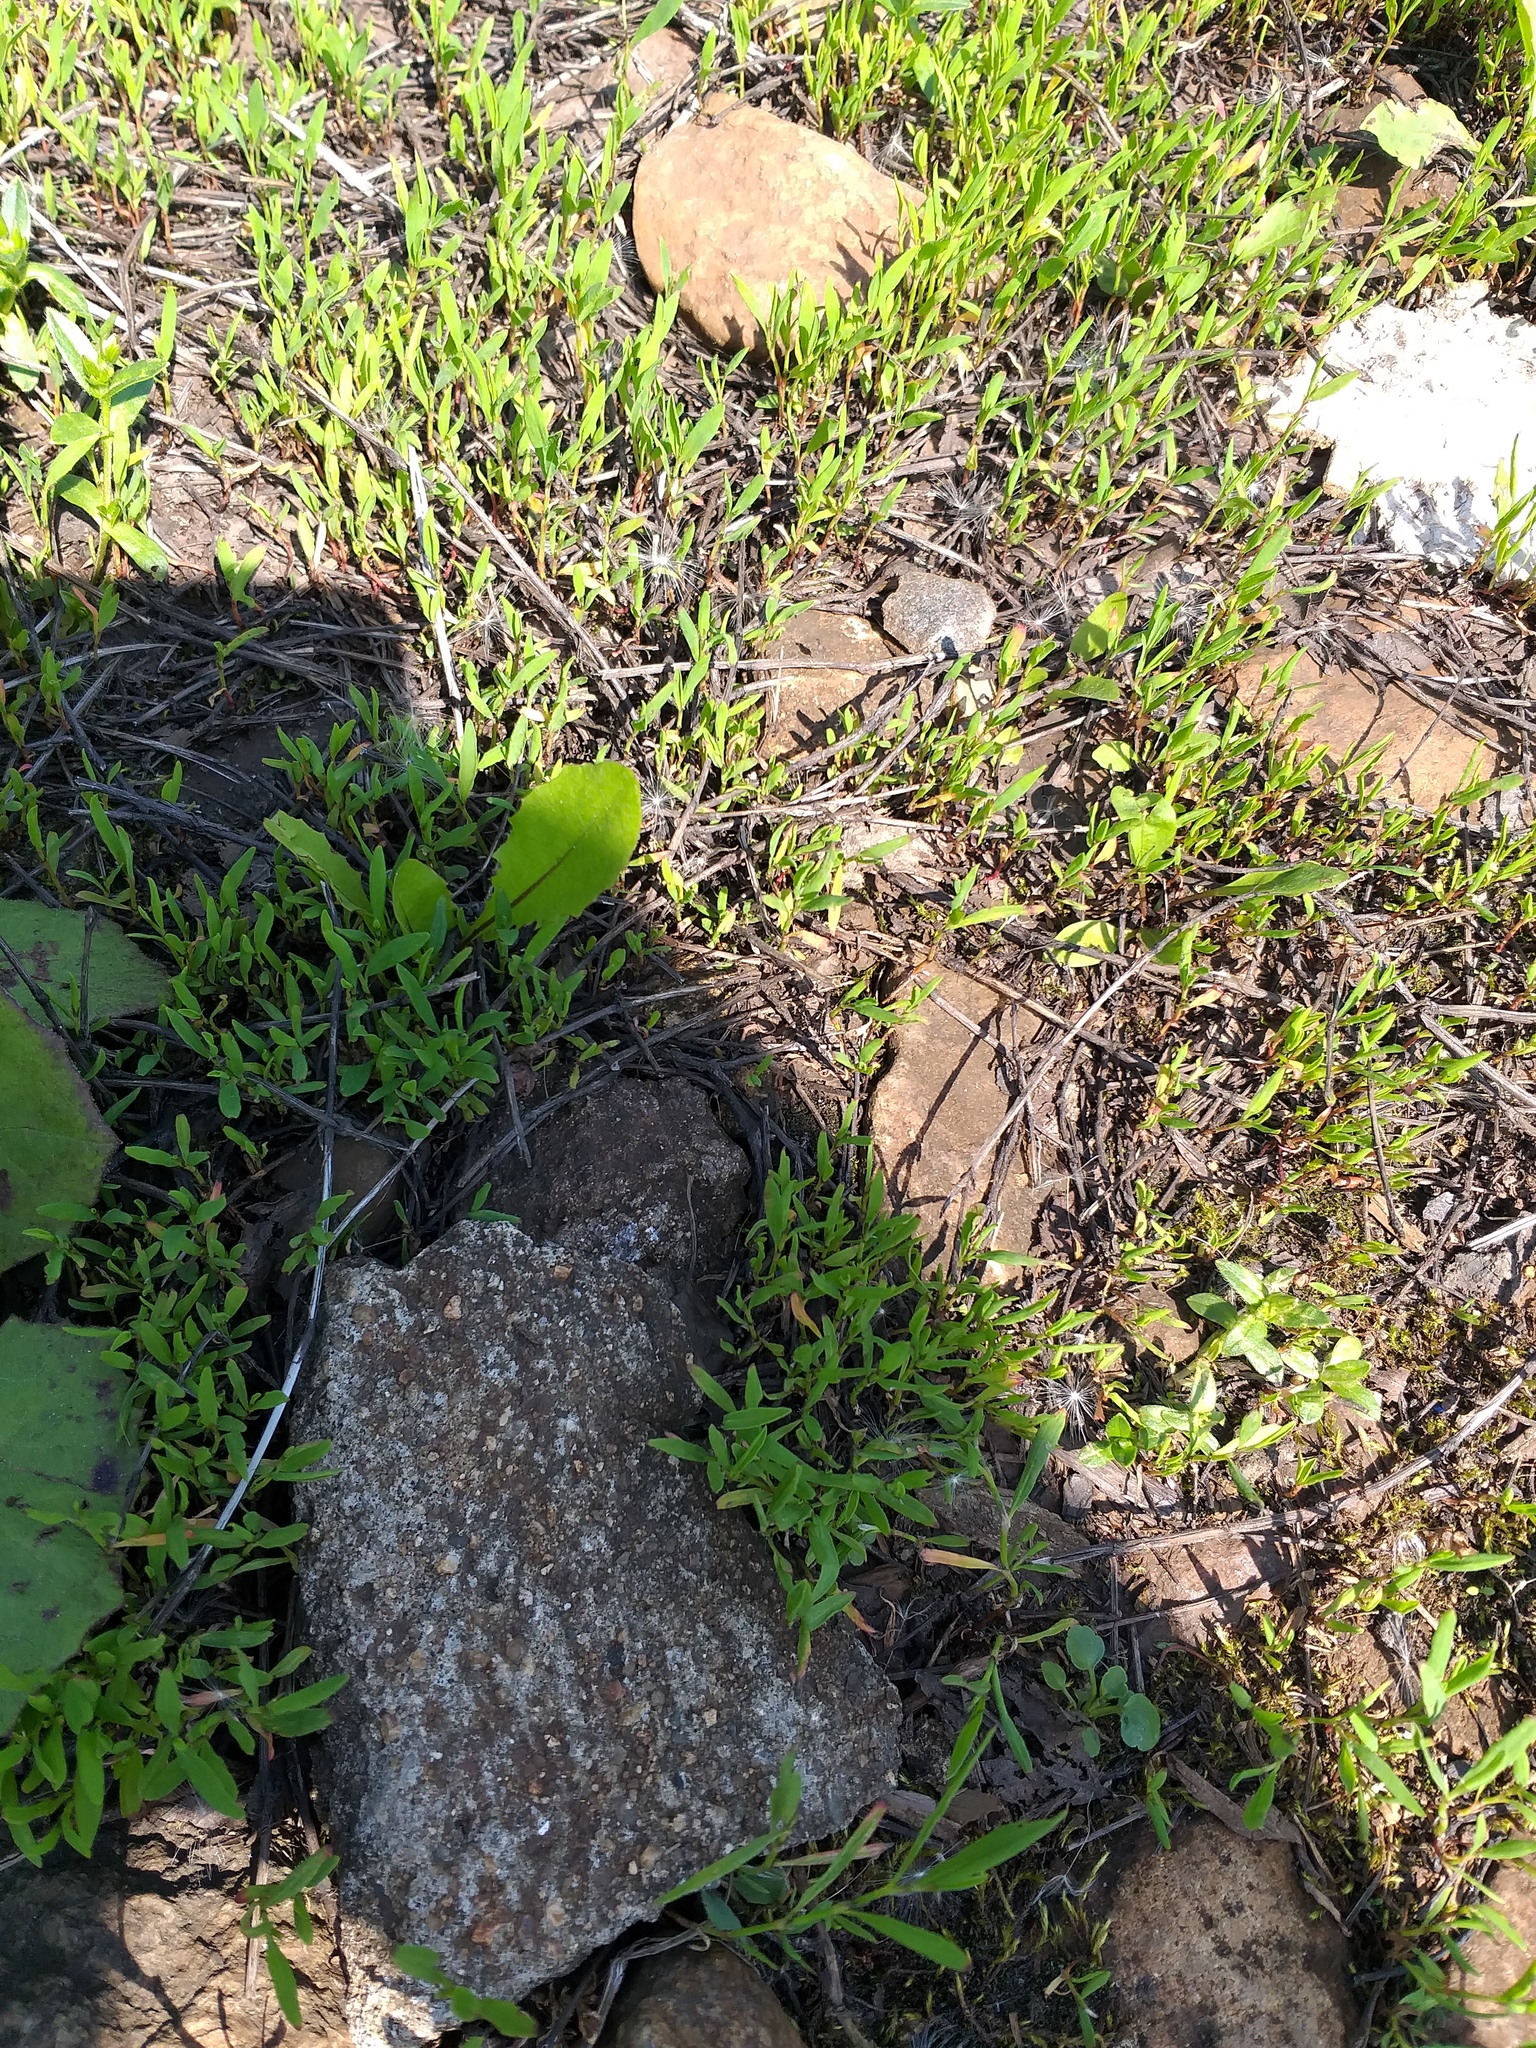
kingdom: Plantae
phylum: Tracheophyta
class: Magnoliopsida
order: Caryophyllales
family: Polygonaceae
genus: Polygonum
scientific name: Polygonum
